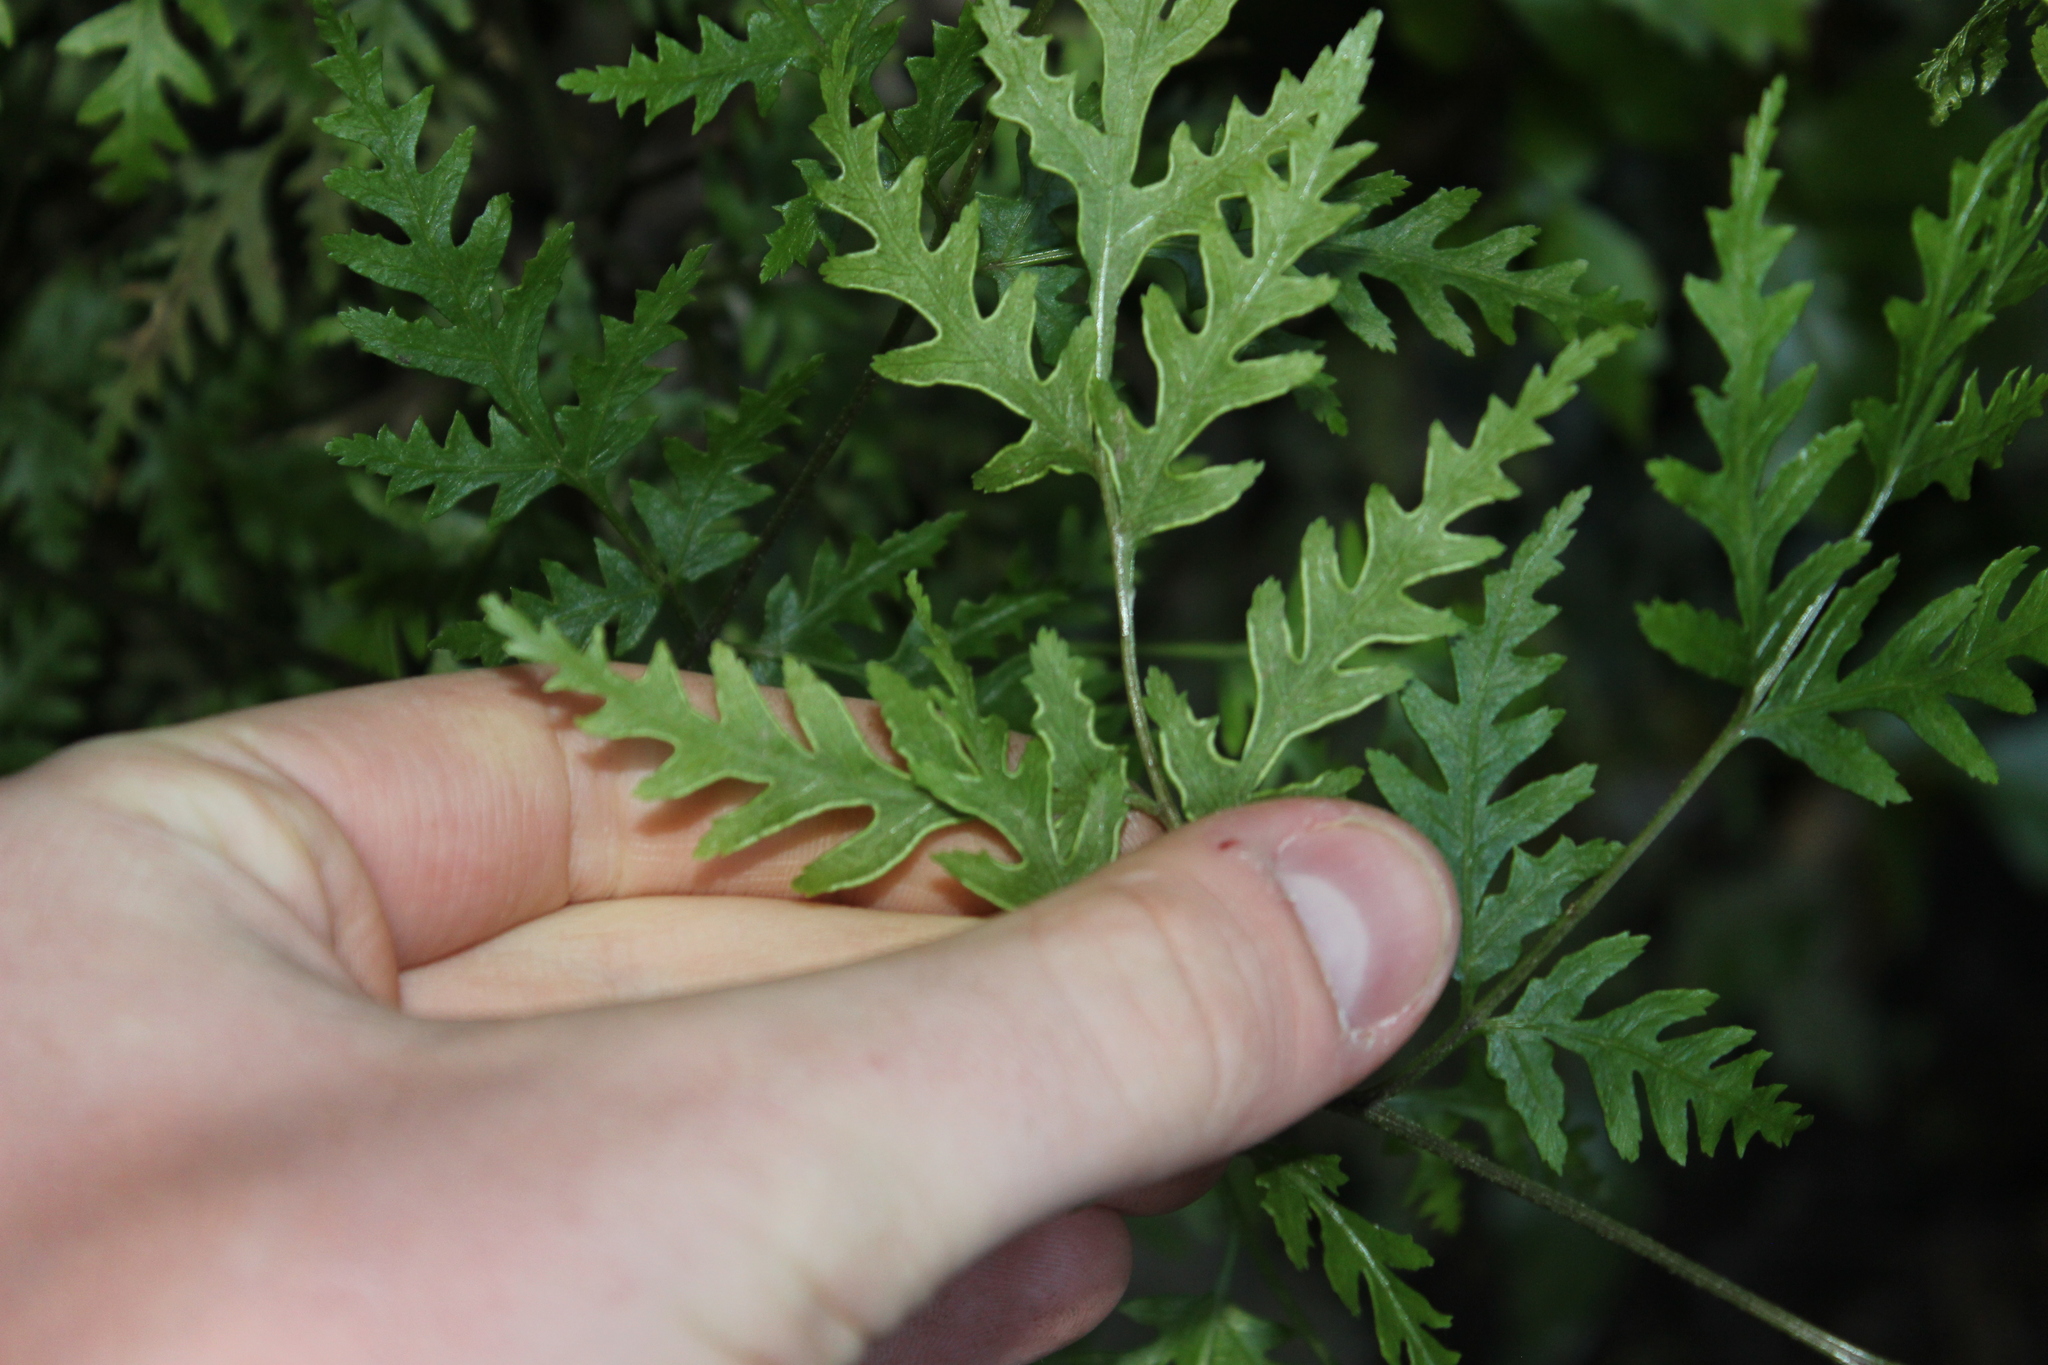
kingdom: Plantae
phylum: Tracheophyta
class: Polypodiopsida
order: Polypodiales
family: Pteridaceae
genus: Pteris
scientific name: Pteris macilenta
